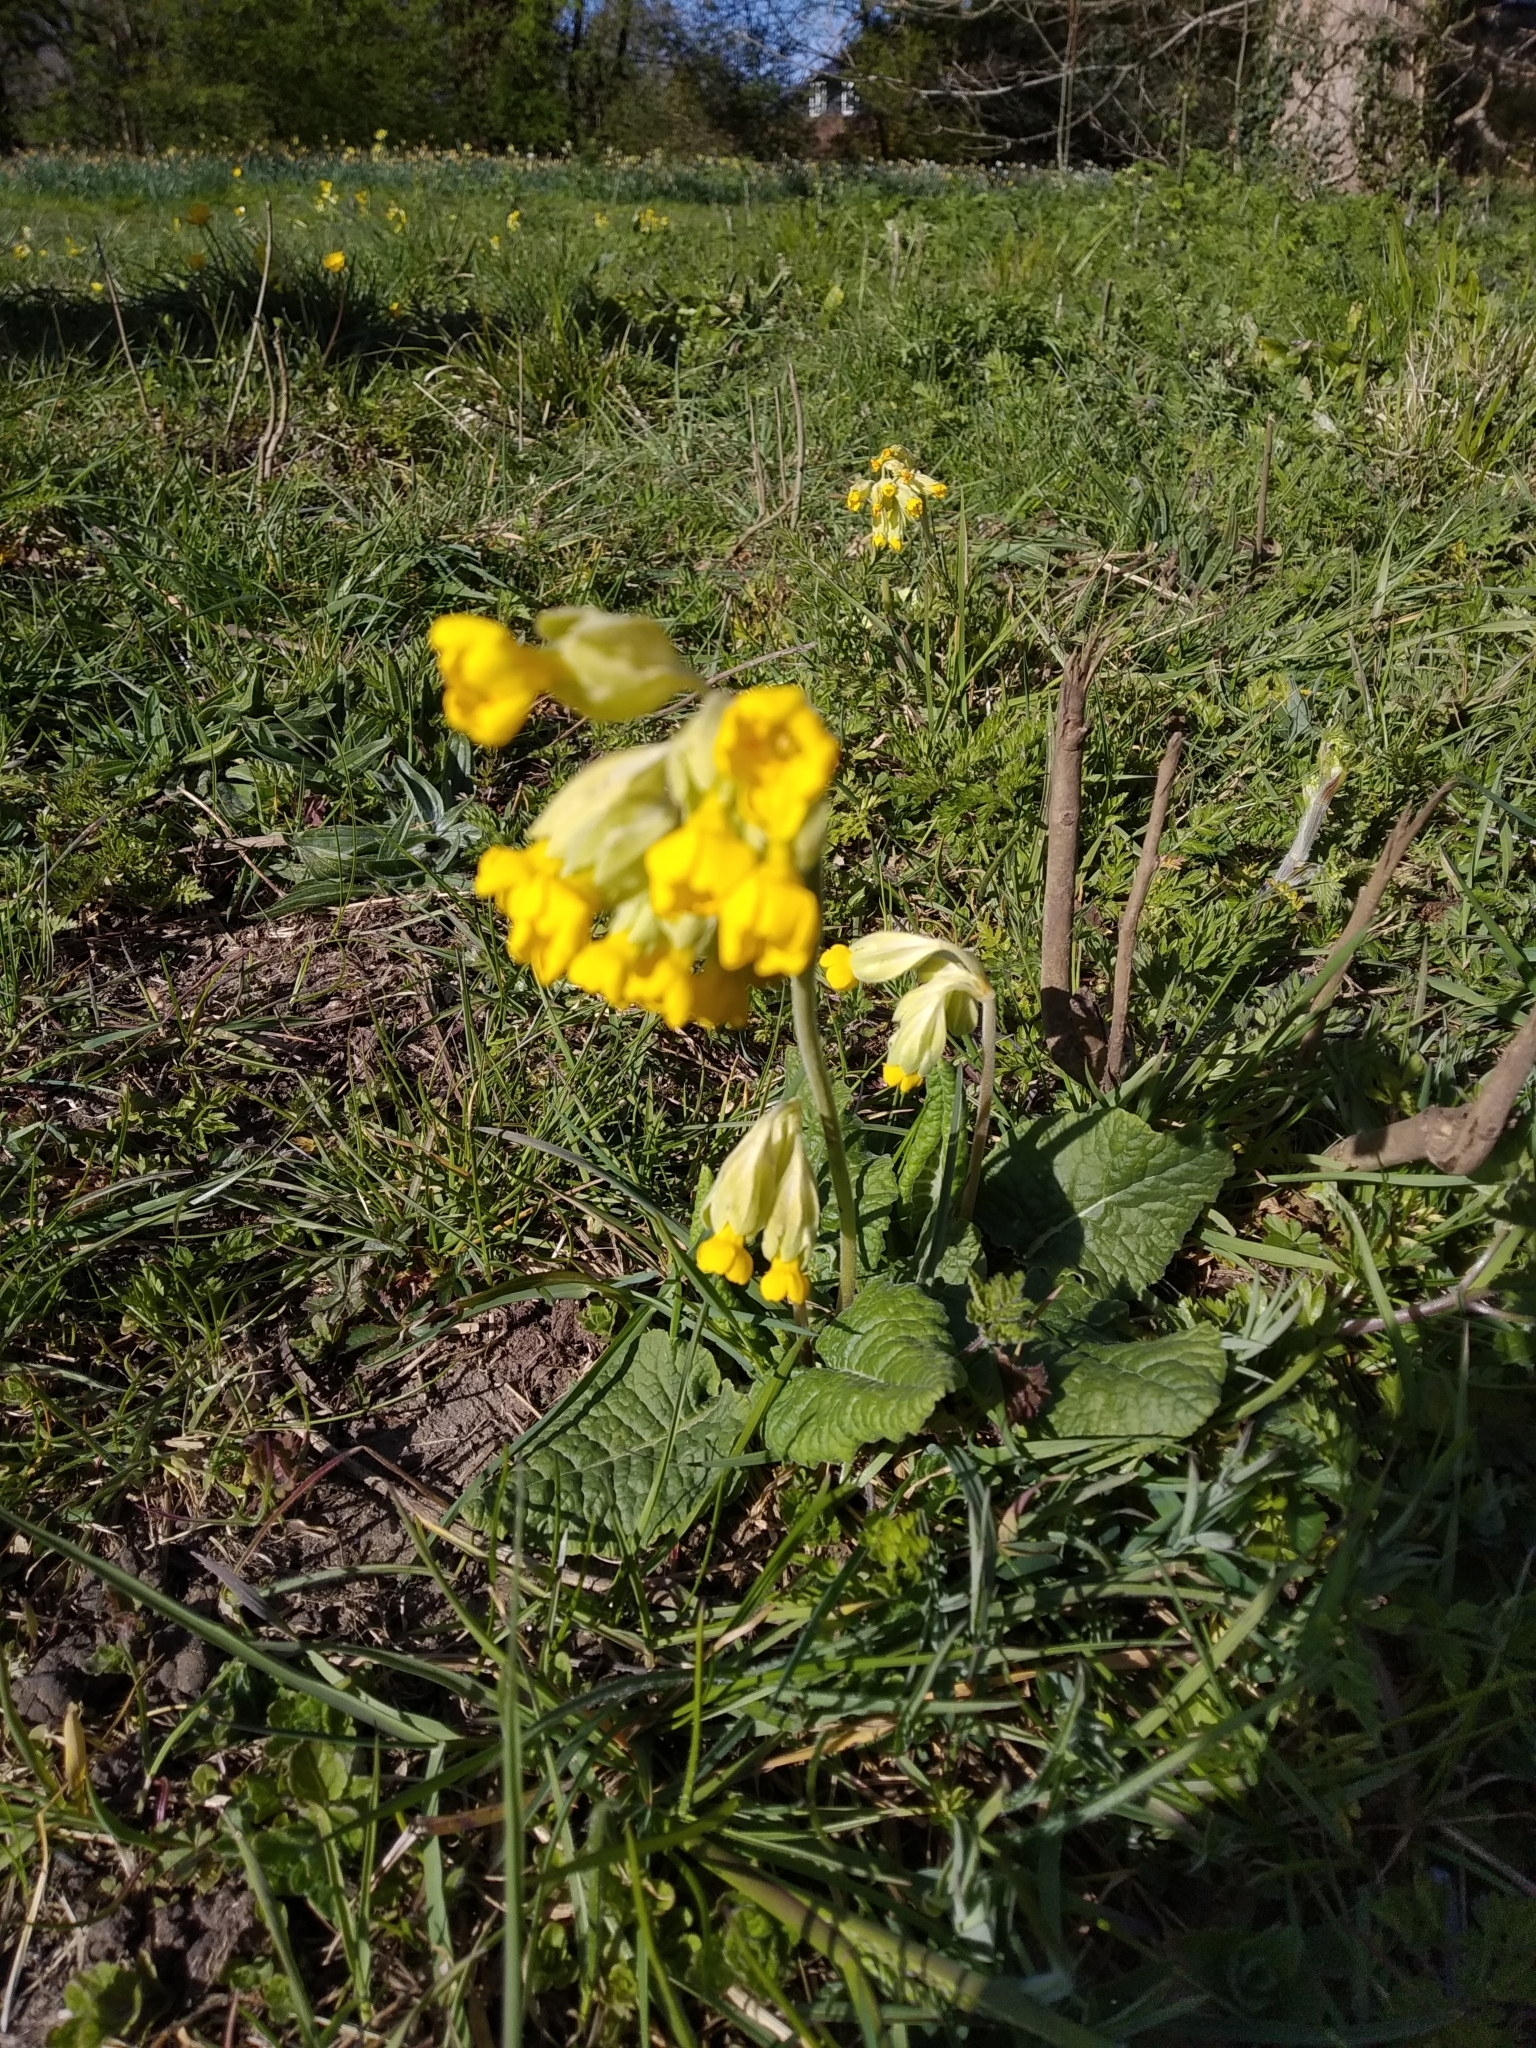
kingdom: Plantae
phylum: Tracheophyta
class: Magnoliopsida
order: Ericales
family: Primulaceae
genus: Primula
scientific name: Primula veris
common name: Cowslip
